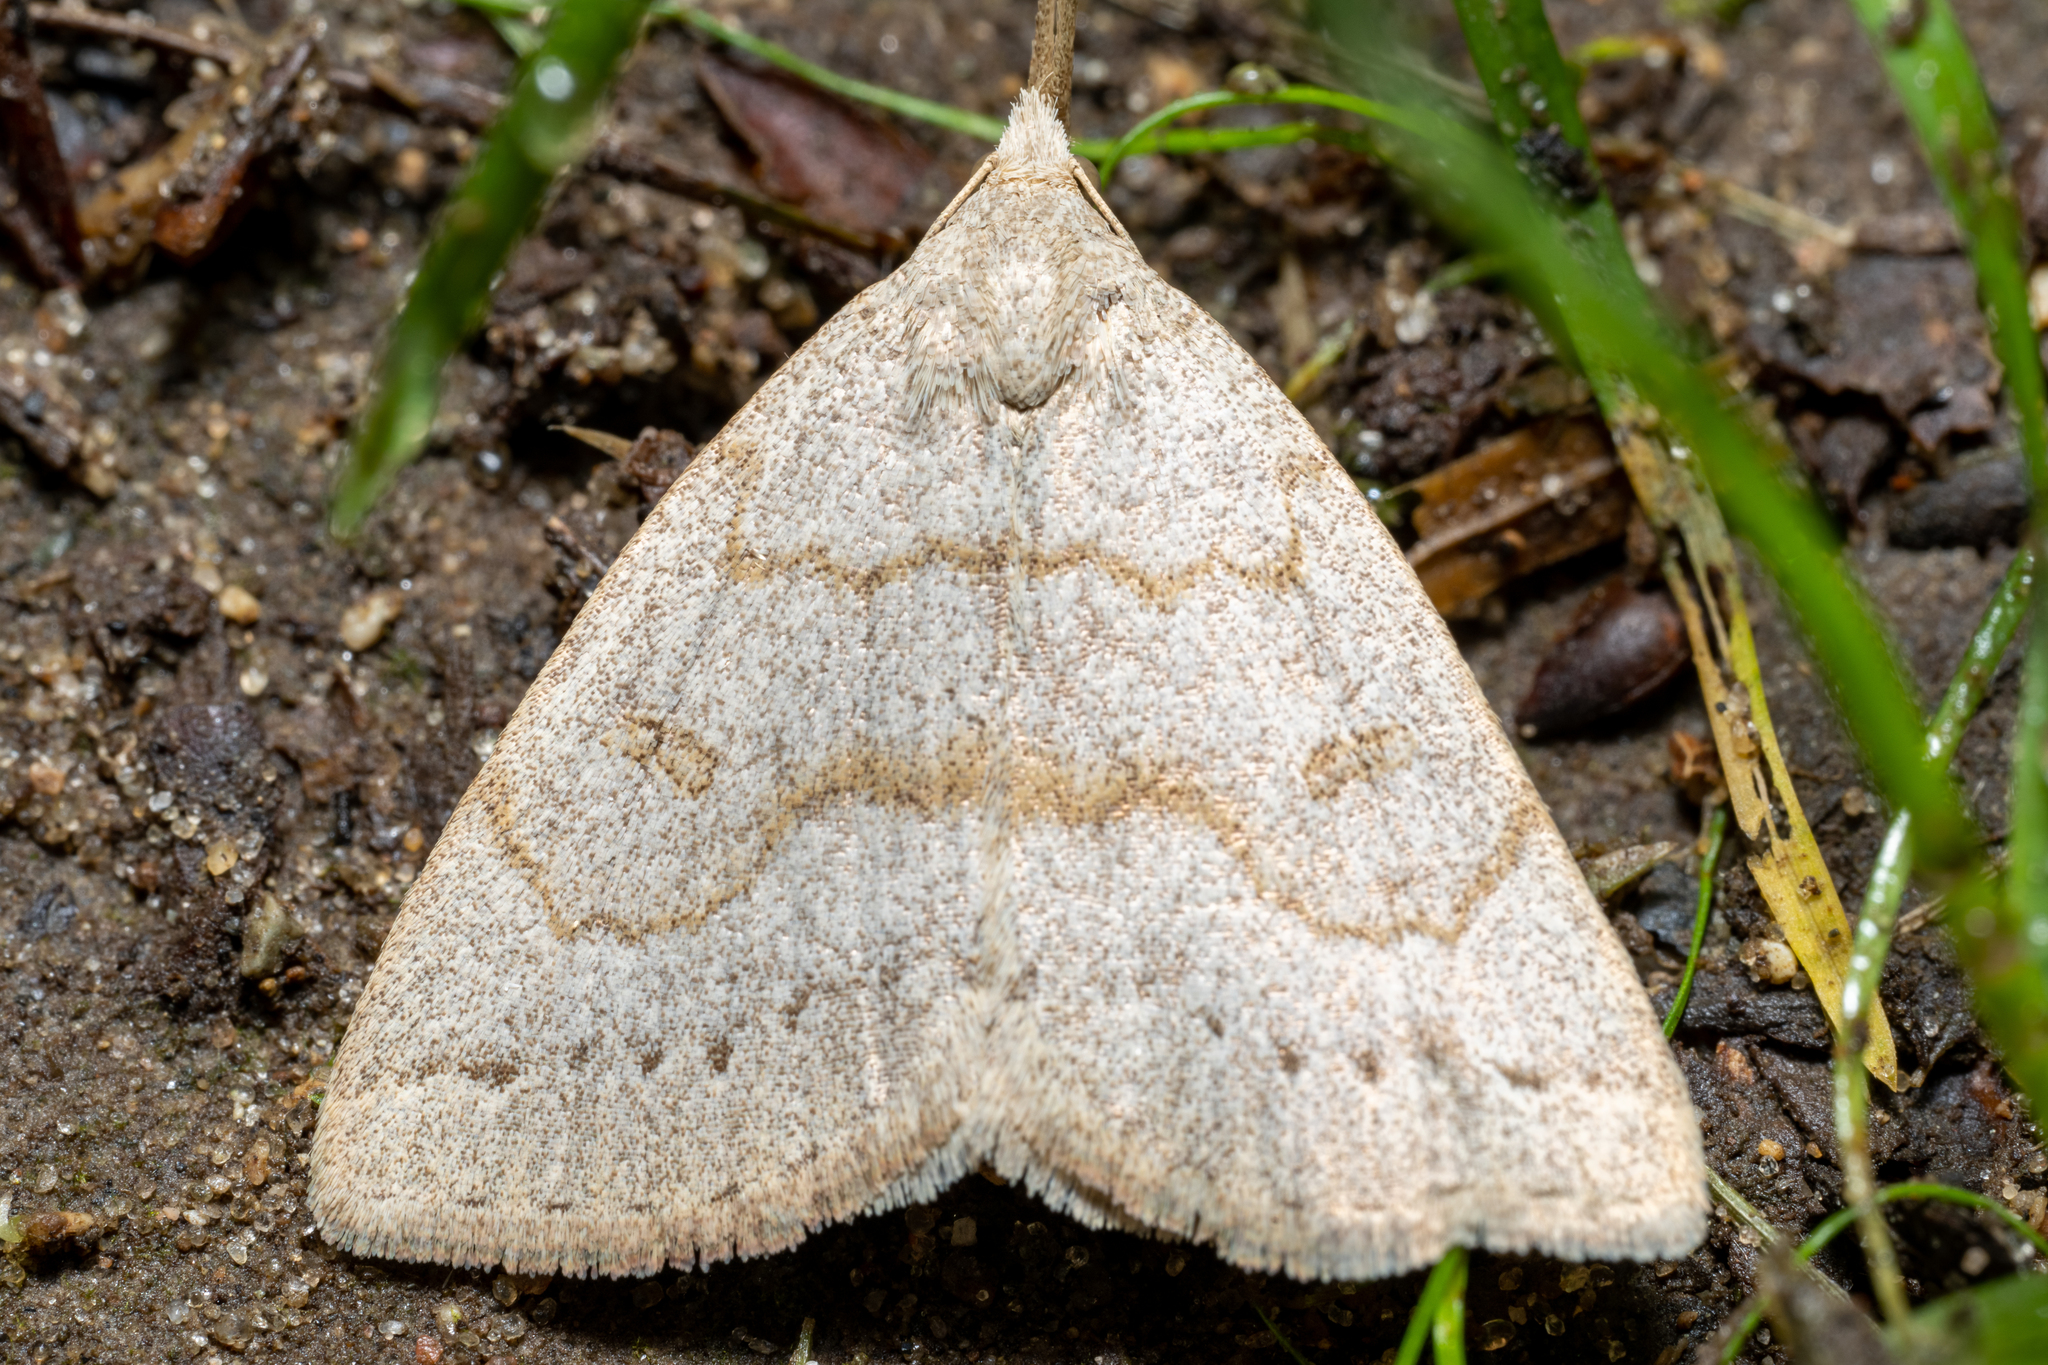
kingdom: Animalia
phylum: Arthropoda
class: Insecta
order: Lepidoptera
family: Erebidae
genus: Macrochilo
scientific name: Macrochilo morbidalis
